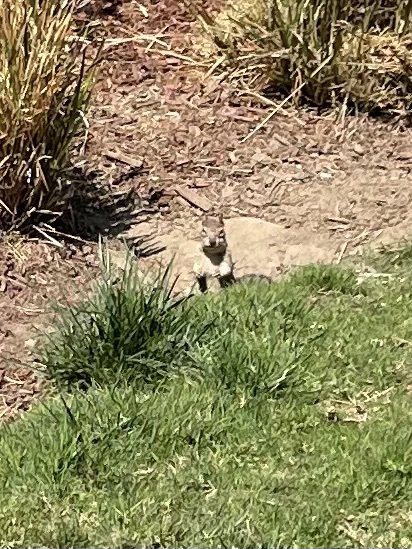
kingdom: Animalia
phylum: Chordata
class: Mammalia
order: Rodentia
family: Sciuridae
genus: Otospermophilus
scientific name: Otospermophilus beecheyi
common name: California ground squirrel
